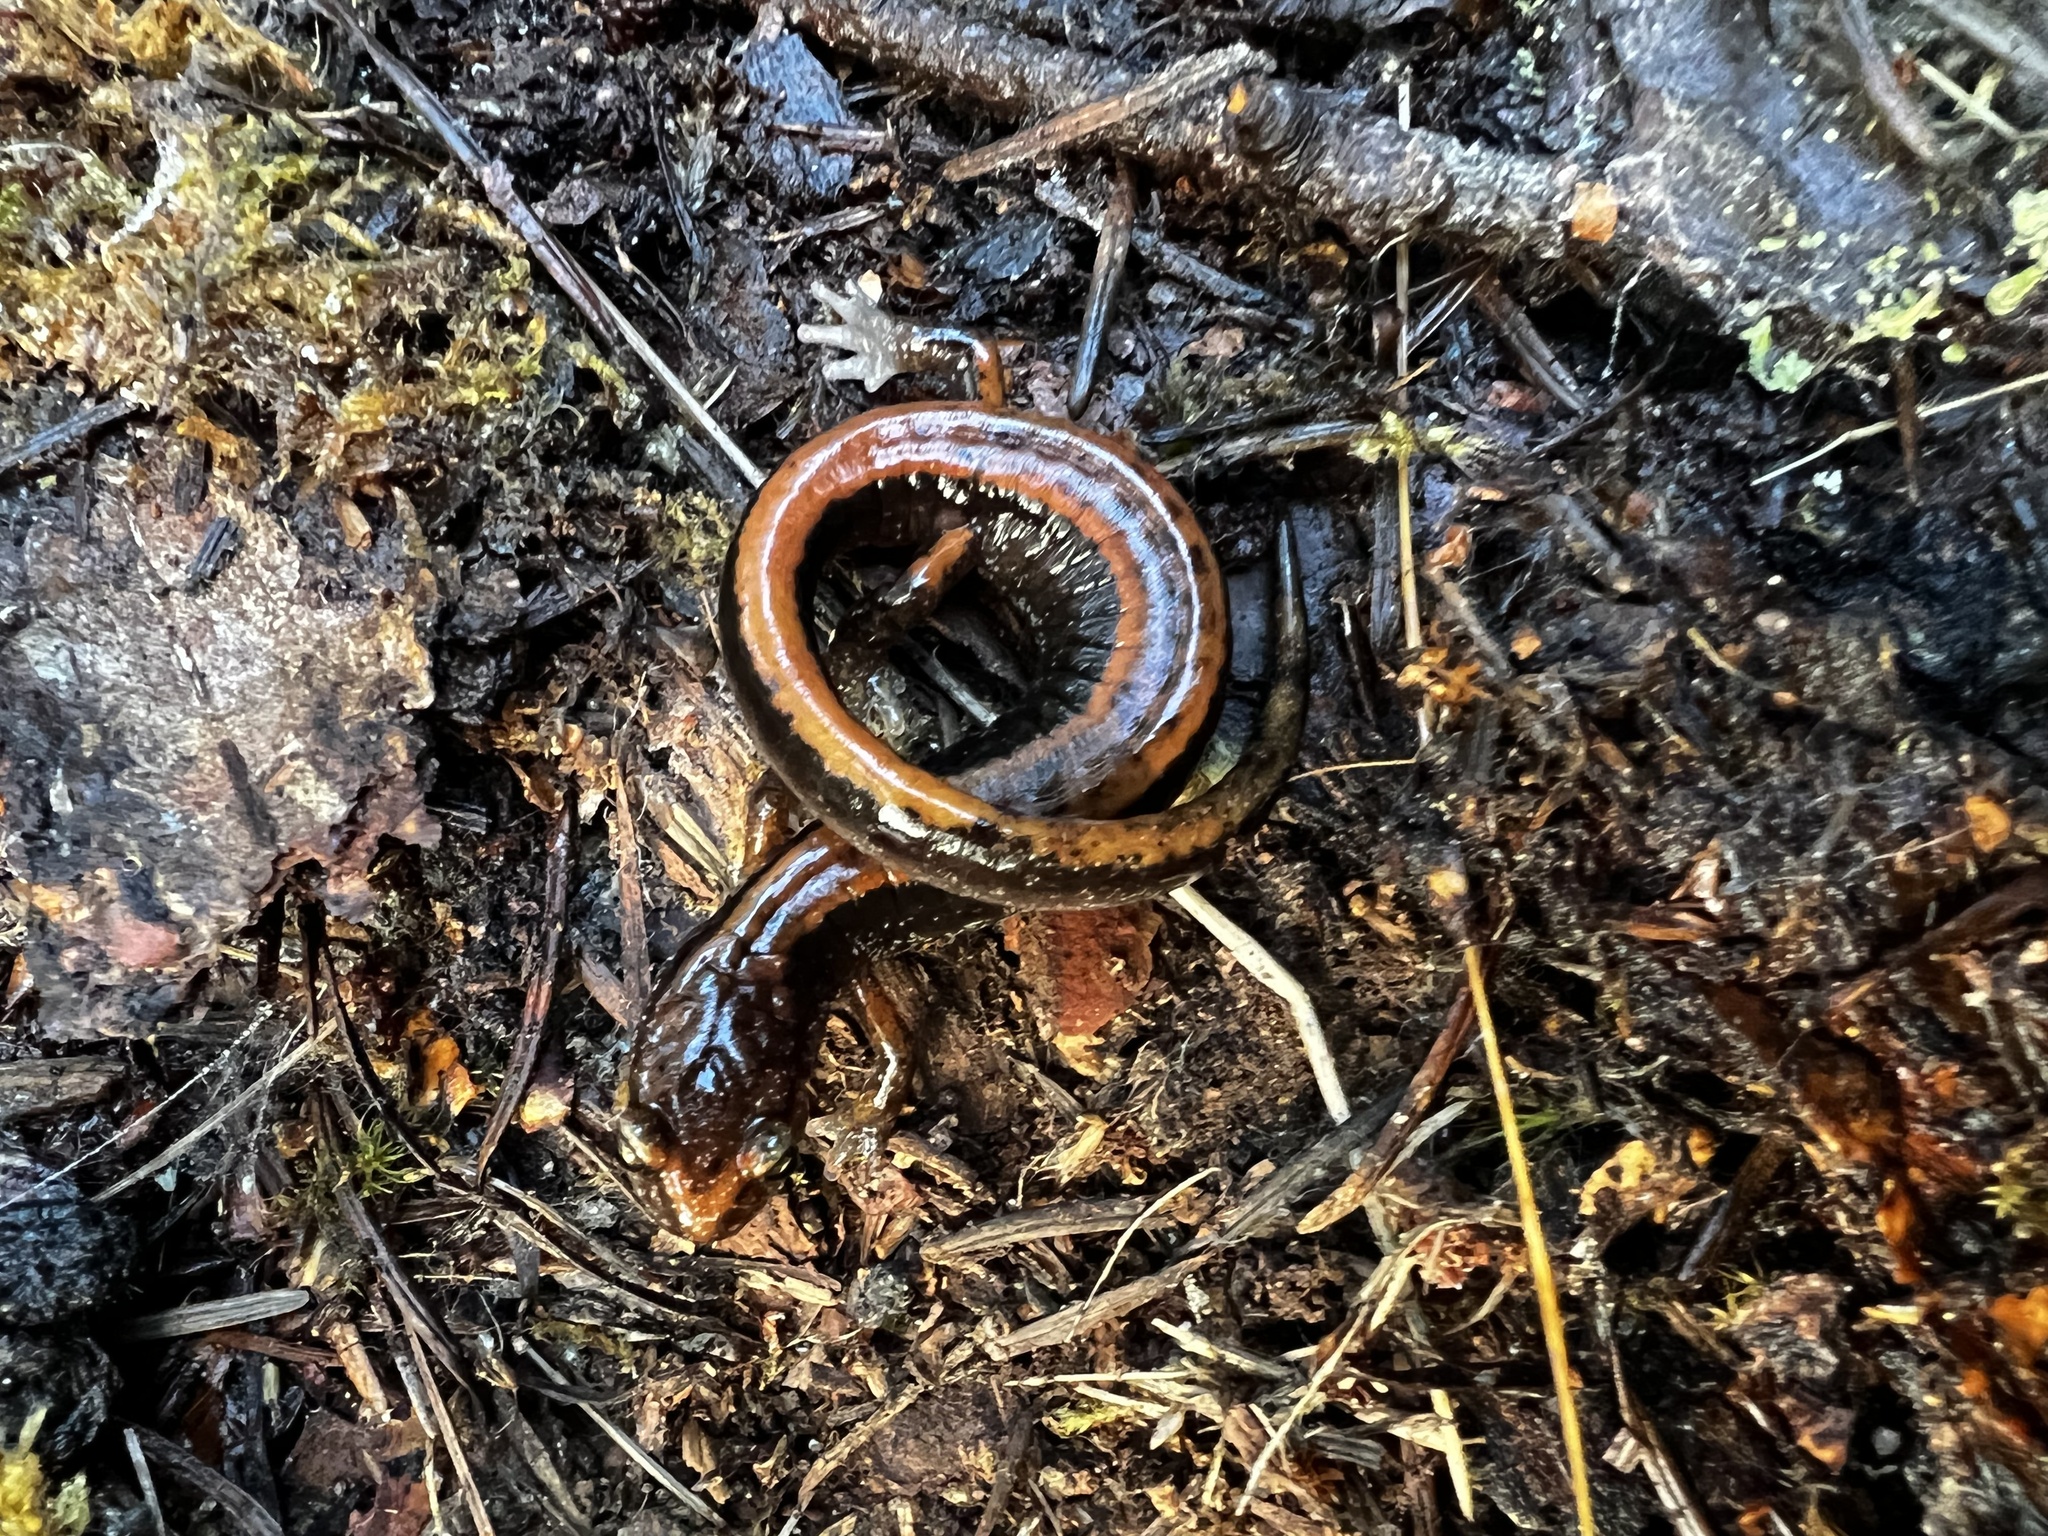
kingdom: Animalia
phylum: Chordata
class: Amphibia
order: Caudata
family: Plethodontidae
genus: Plethodon
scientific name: Plethodon vehiculum
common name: Western red-backed salamander
